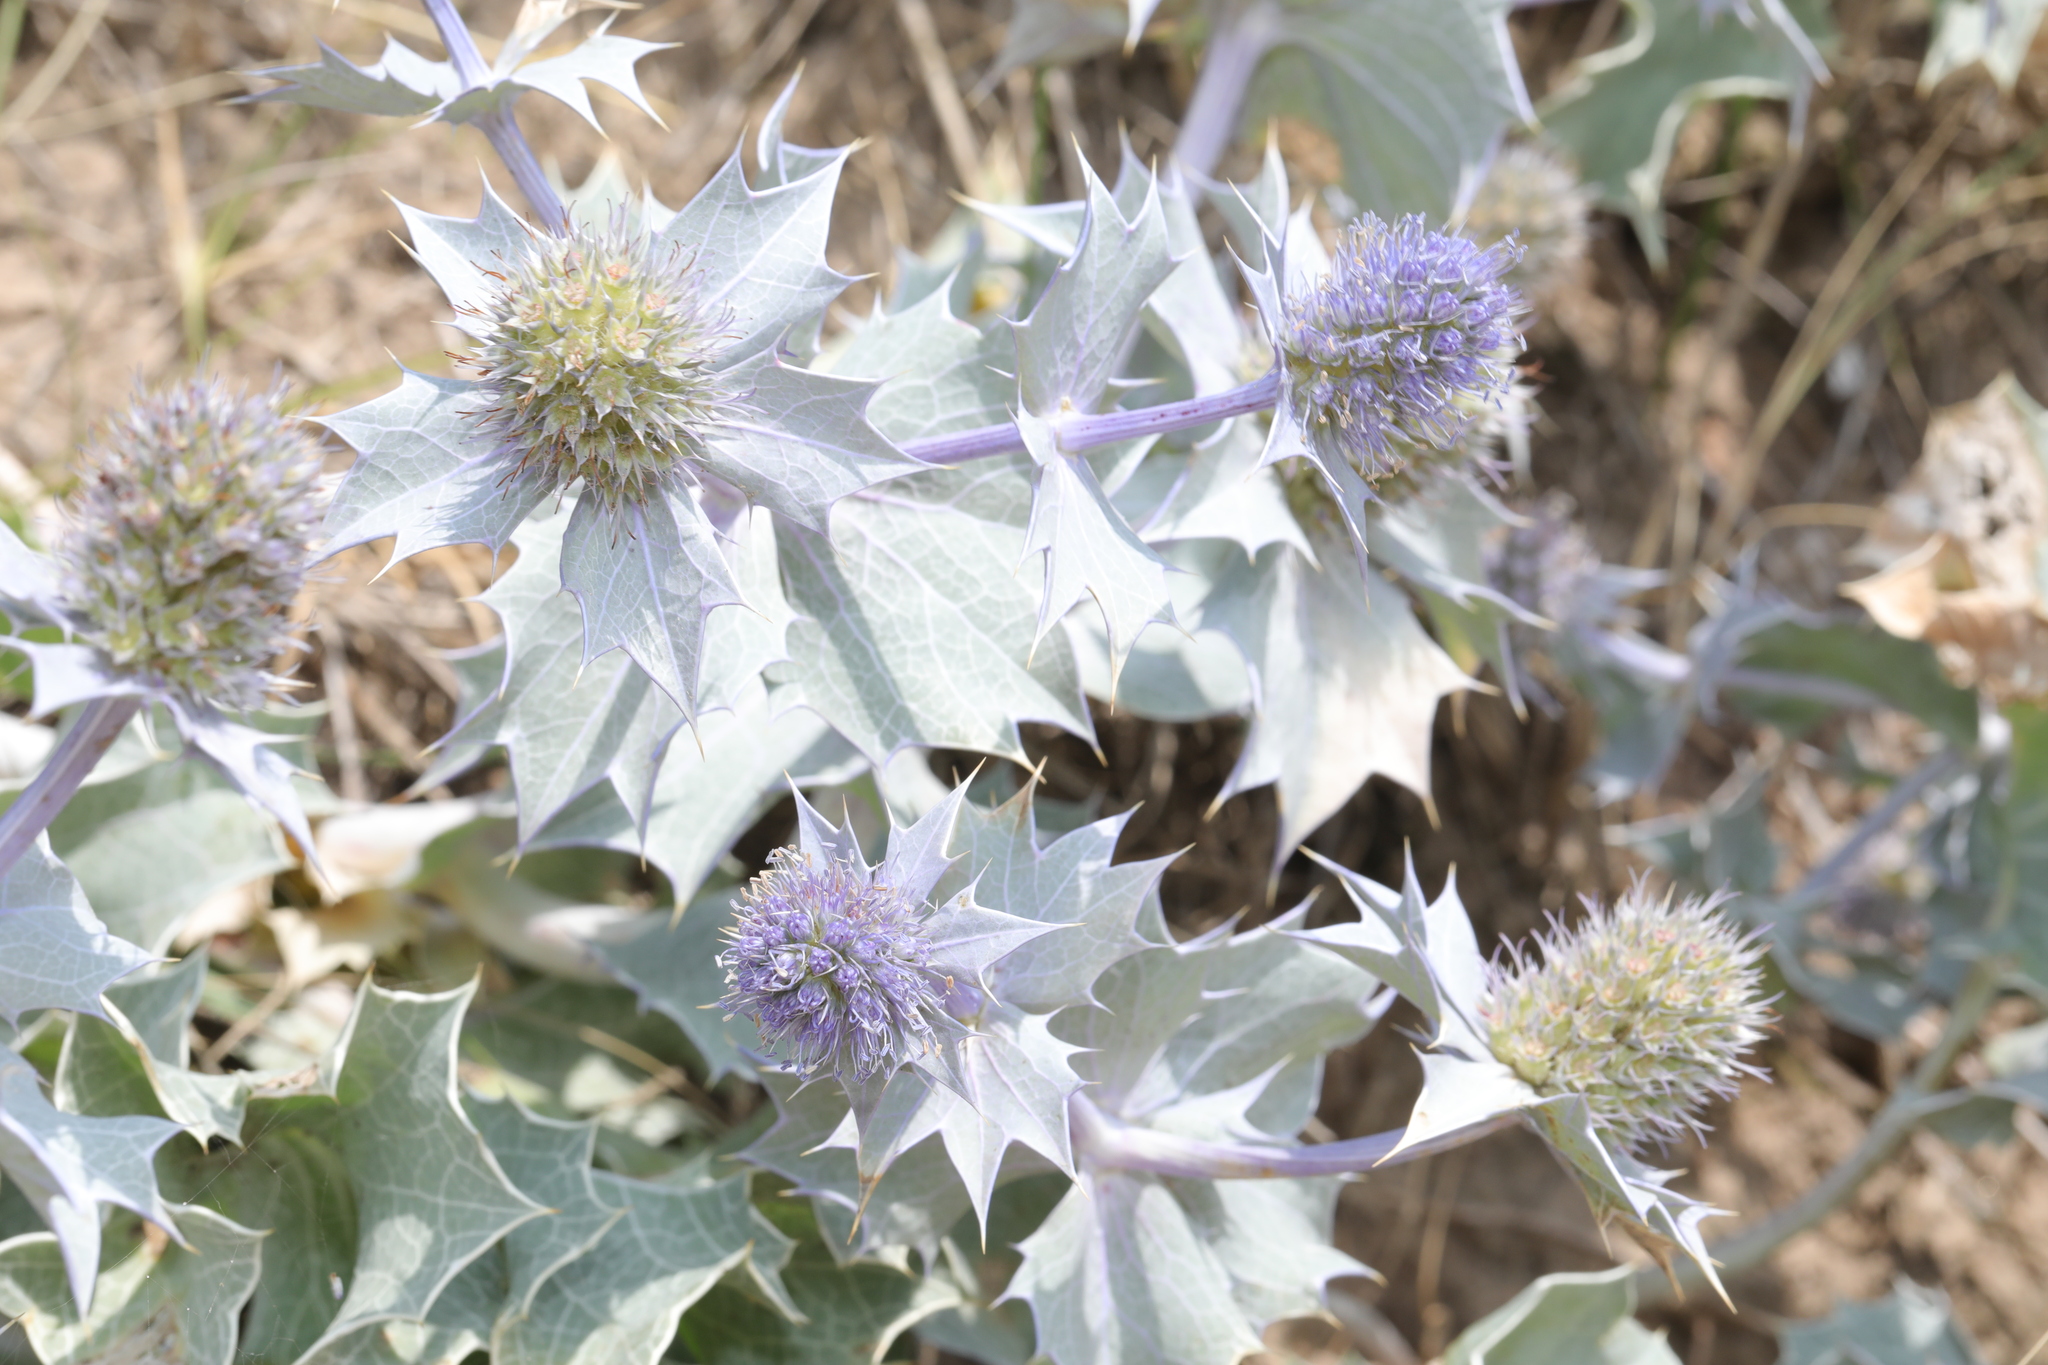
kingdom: Plantae
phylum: Tracheophyta
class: Magnoliopsida
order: Apiales
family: Apiaceae
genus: Eryngium
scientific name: Eryngium maritimum
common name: Sea-holly
